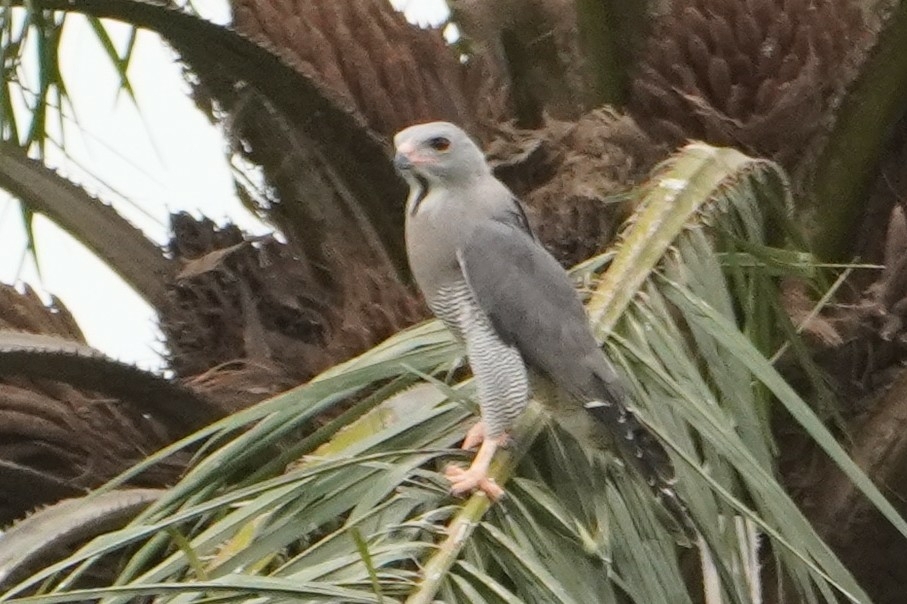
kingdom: Animalia
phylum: Chordata
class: Aves
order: Accipitriformes
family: Accipitridae
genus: Kaupifalco
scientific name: Kaupifalco monogrammicus
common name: Lizard buzzard
